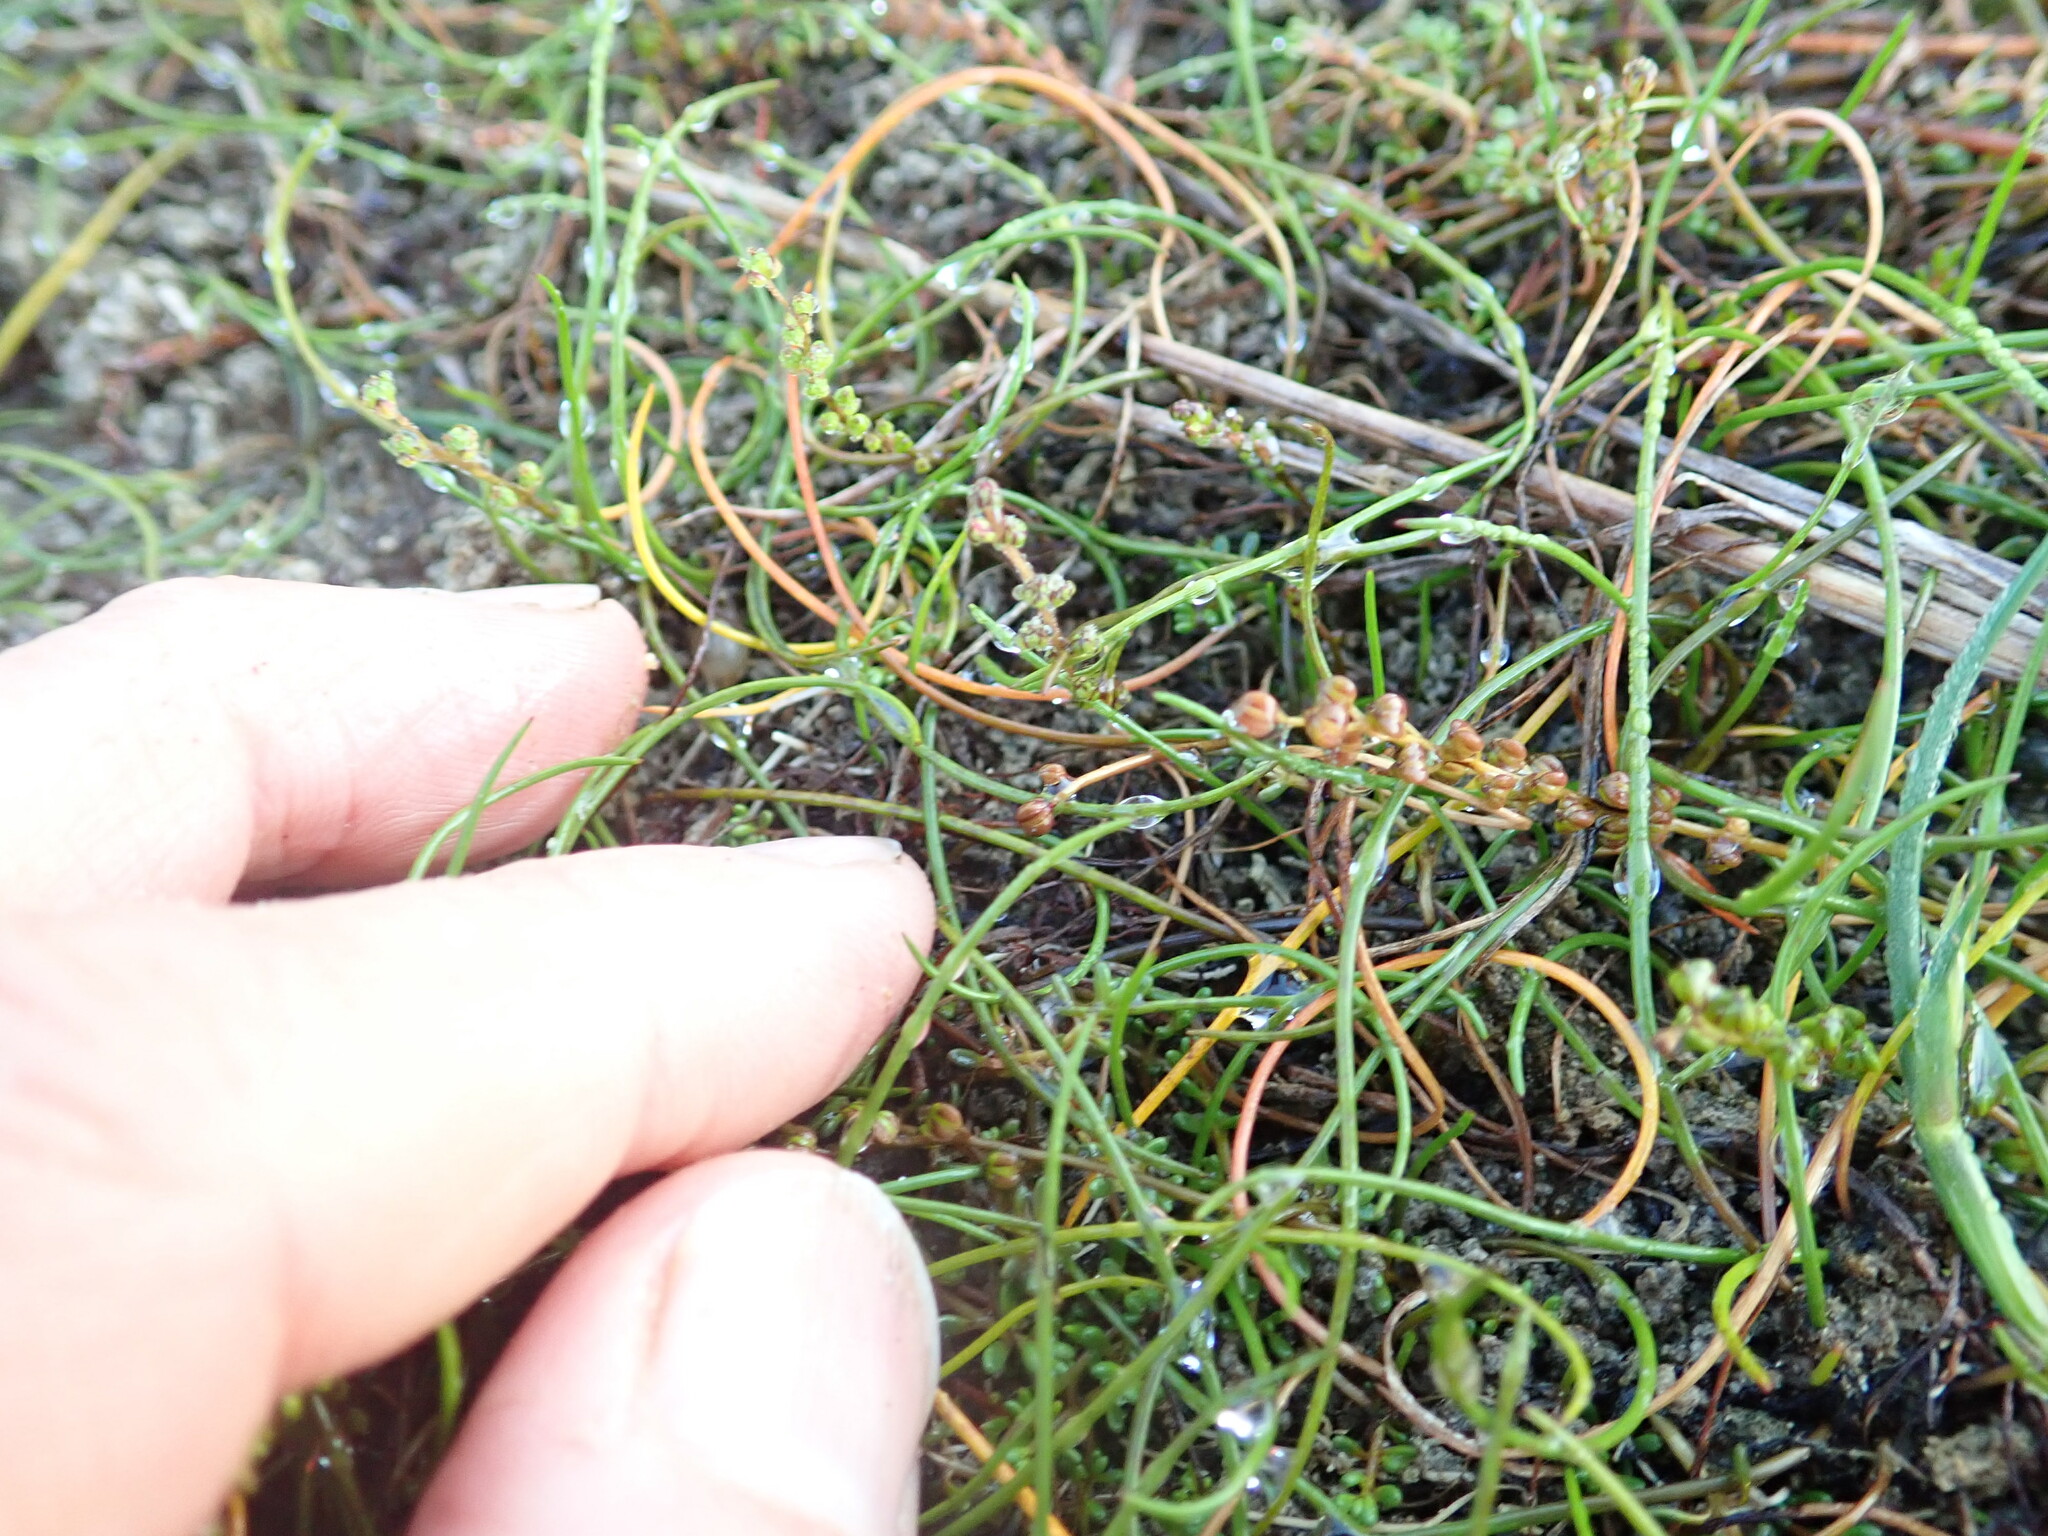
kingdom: Plantae
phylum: Tracheophyta
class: Liliopsida
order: Alismatales
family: Juncaginaceae
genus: Triglochin
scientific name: Triglochin striata
